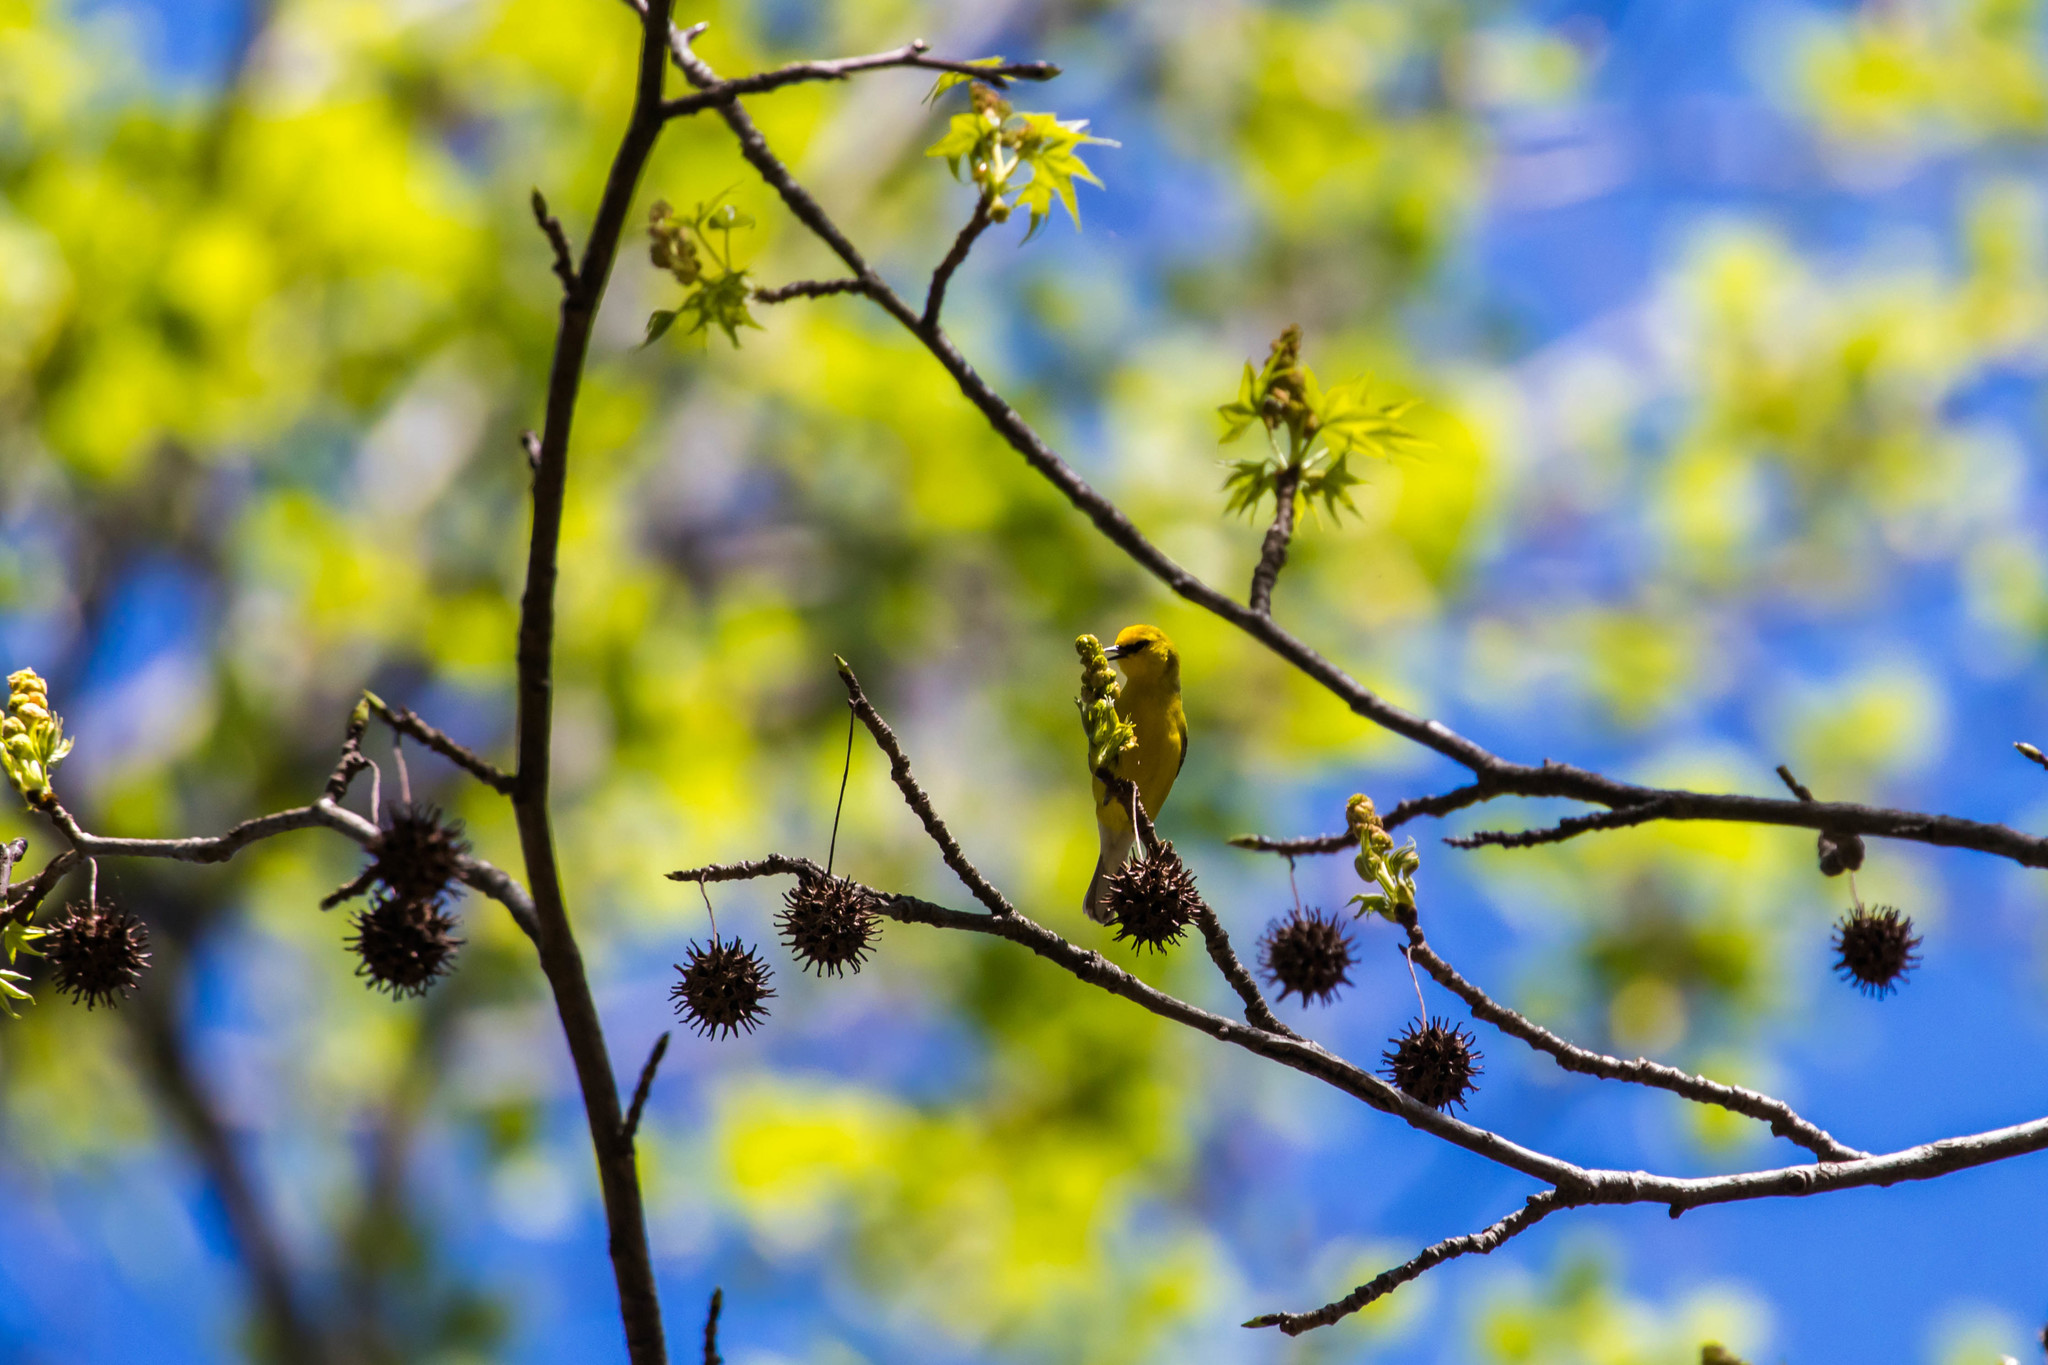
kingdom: Animalia
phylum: Chordata
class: Aves
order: Passeriformes
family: Parulidae
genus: Vermivora
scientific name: Vermivora cyanoptera
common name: Blue-winged warbler
